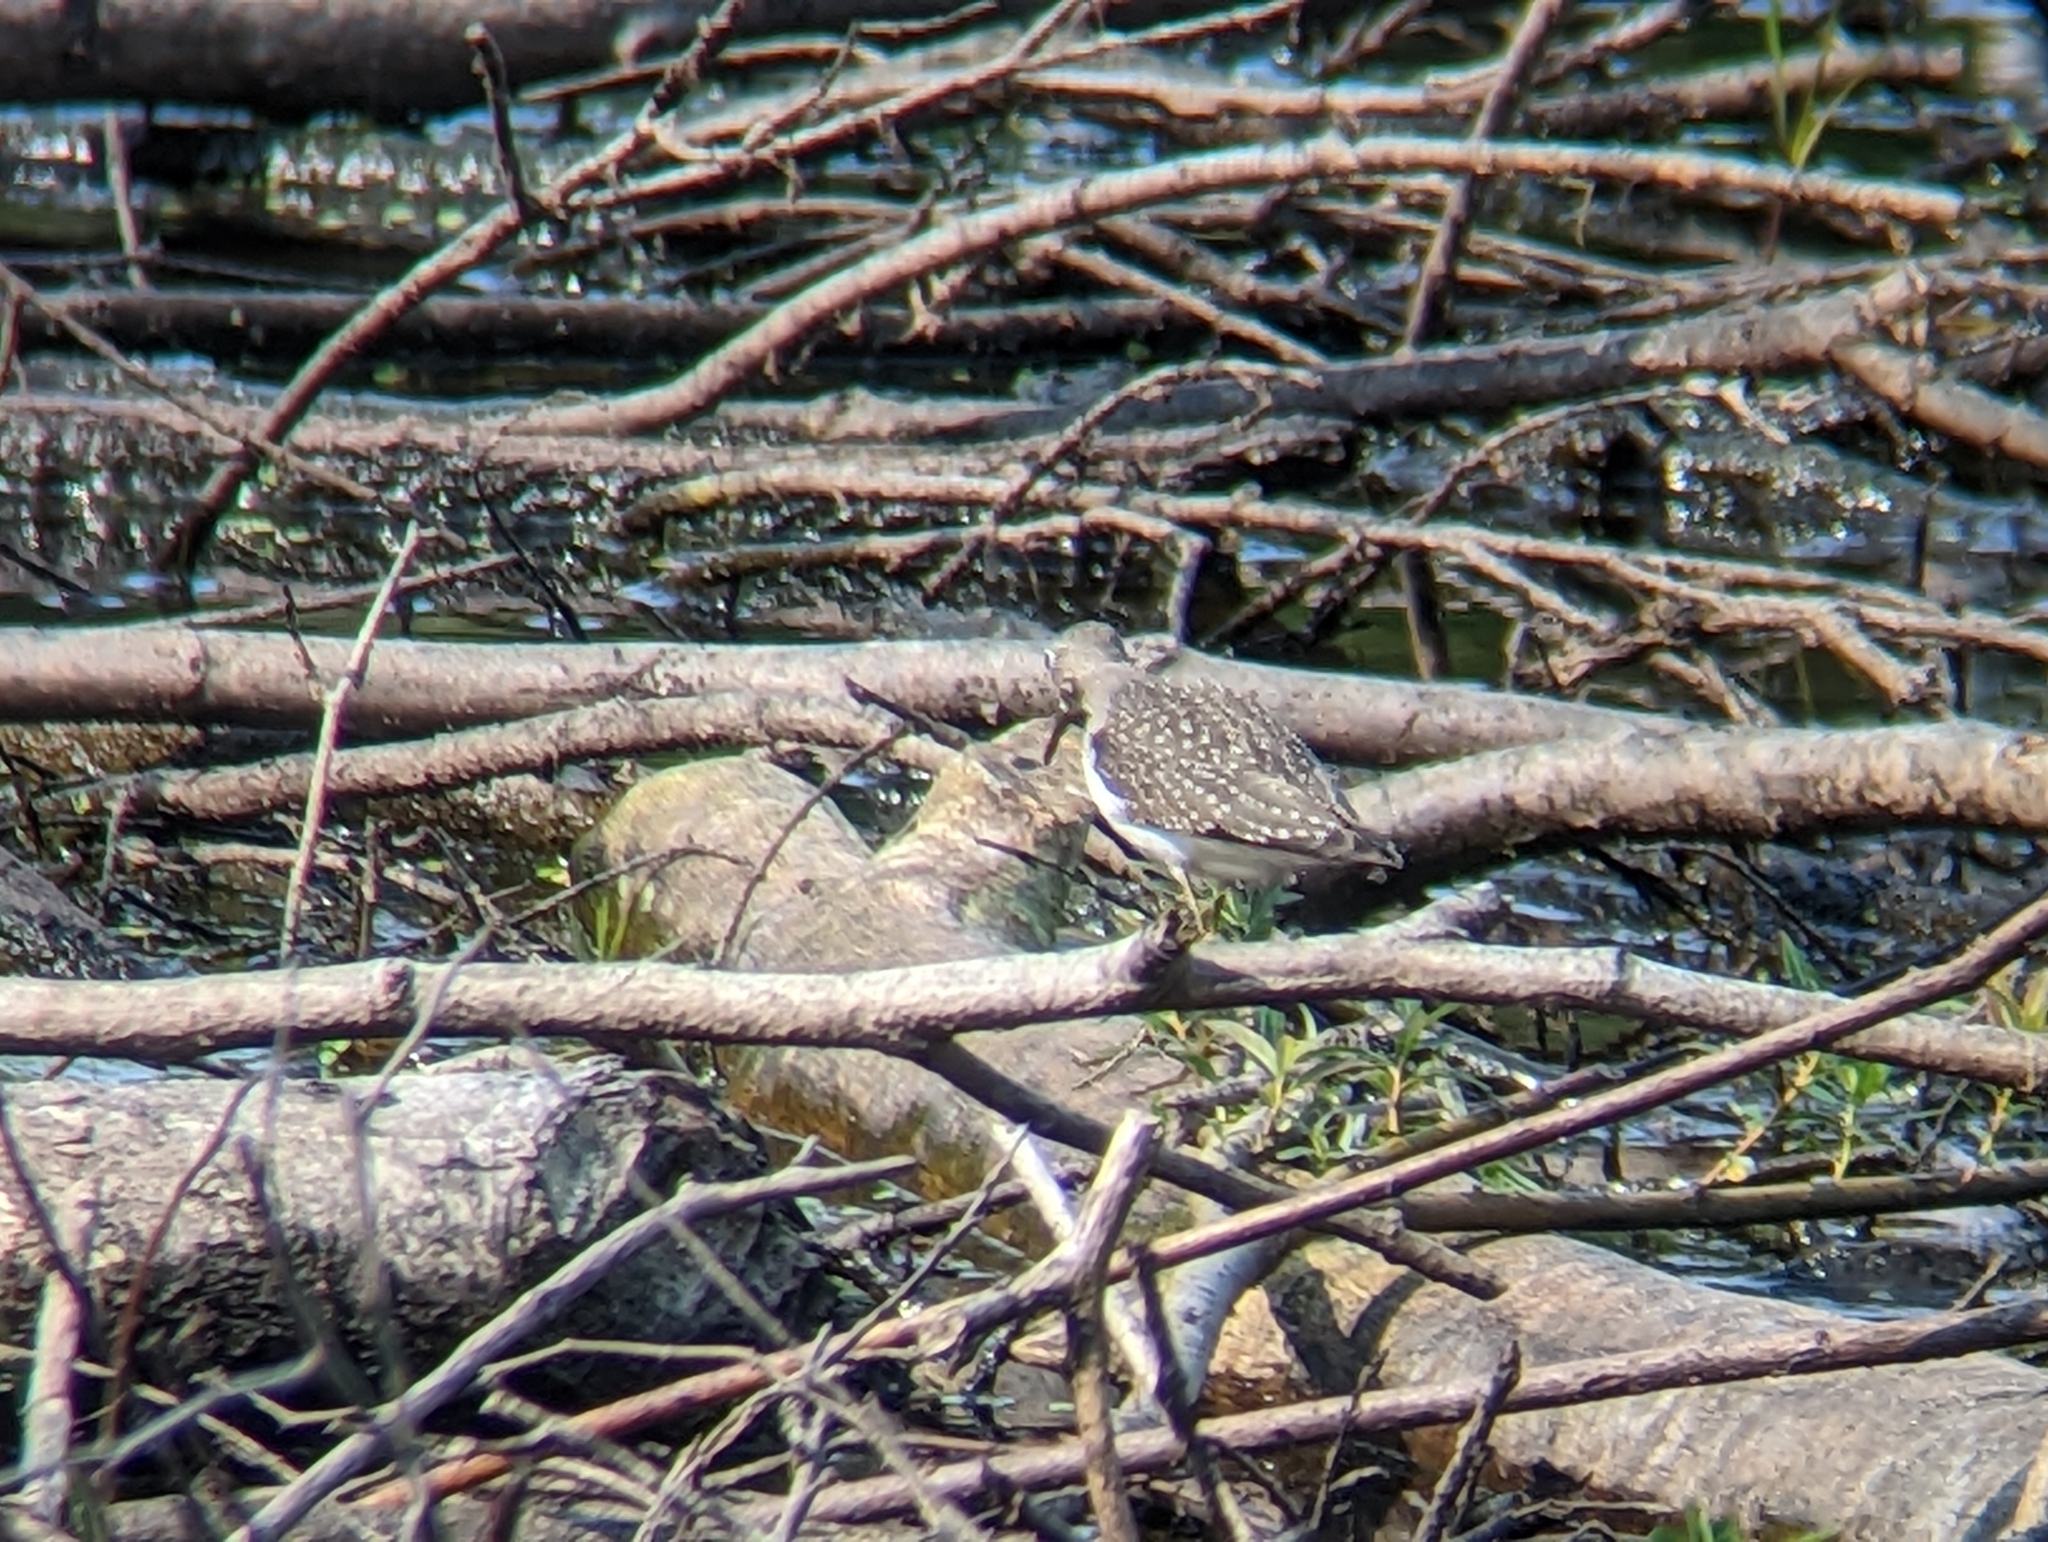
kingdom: Animalia
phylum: Chordata
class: Aves
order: Charadriiformes
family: Scolopacidae
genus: Tringa
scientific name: Tringa solitaria
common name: Solitary sandpiper
